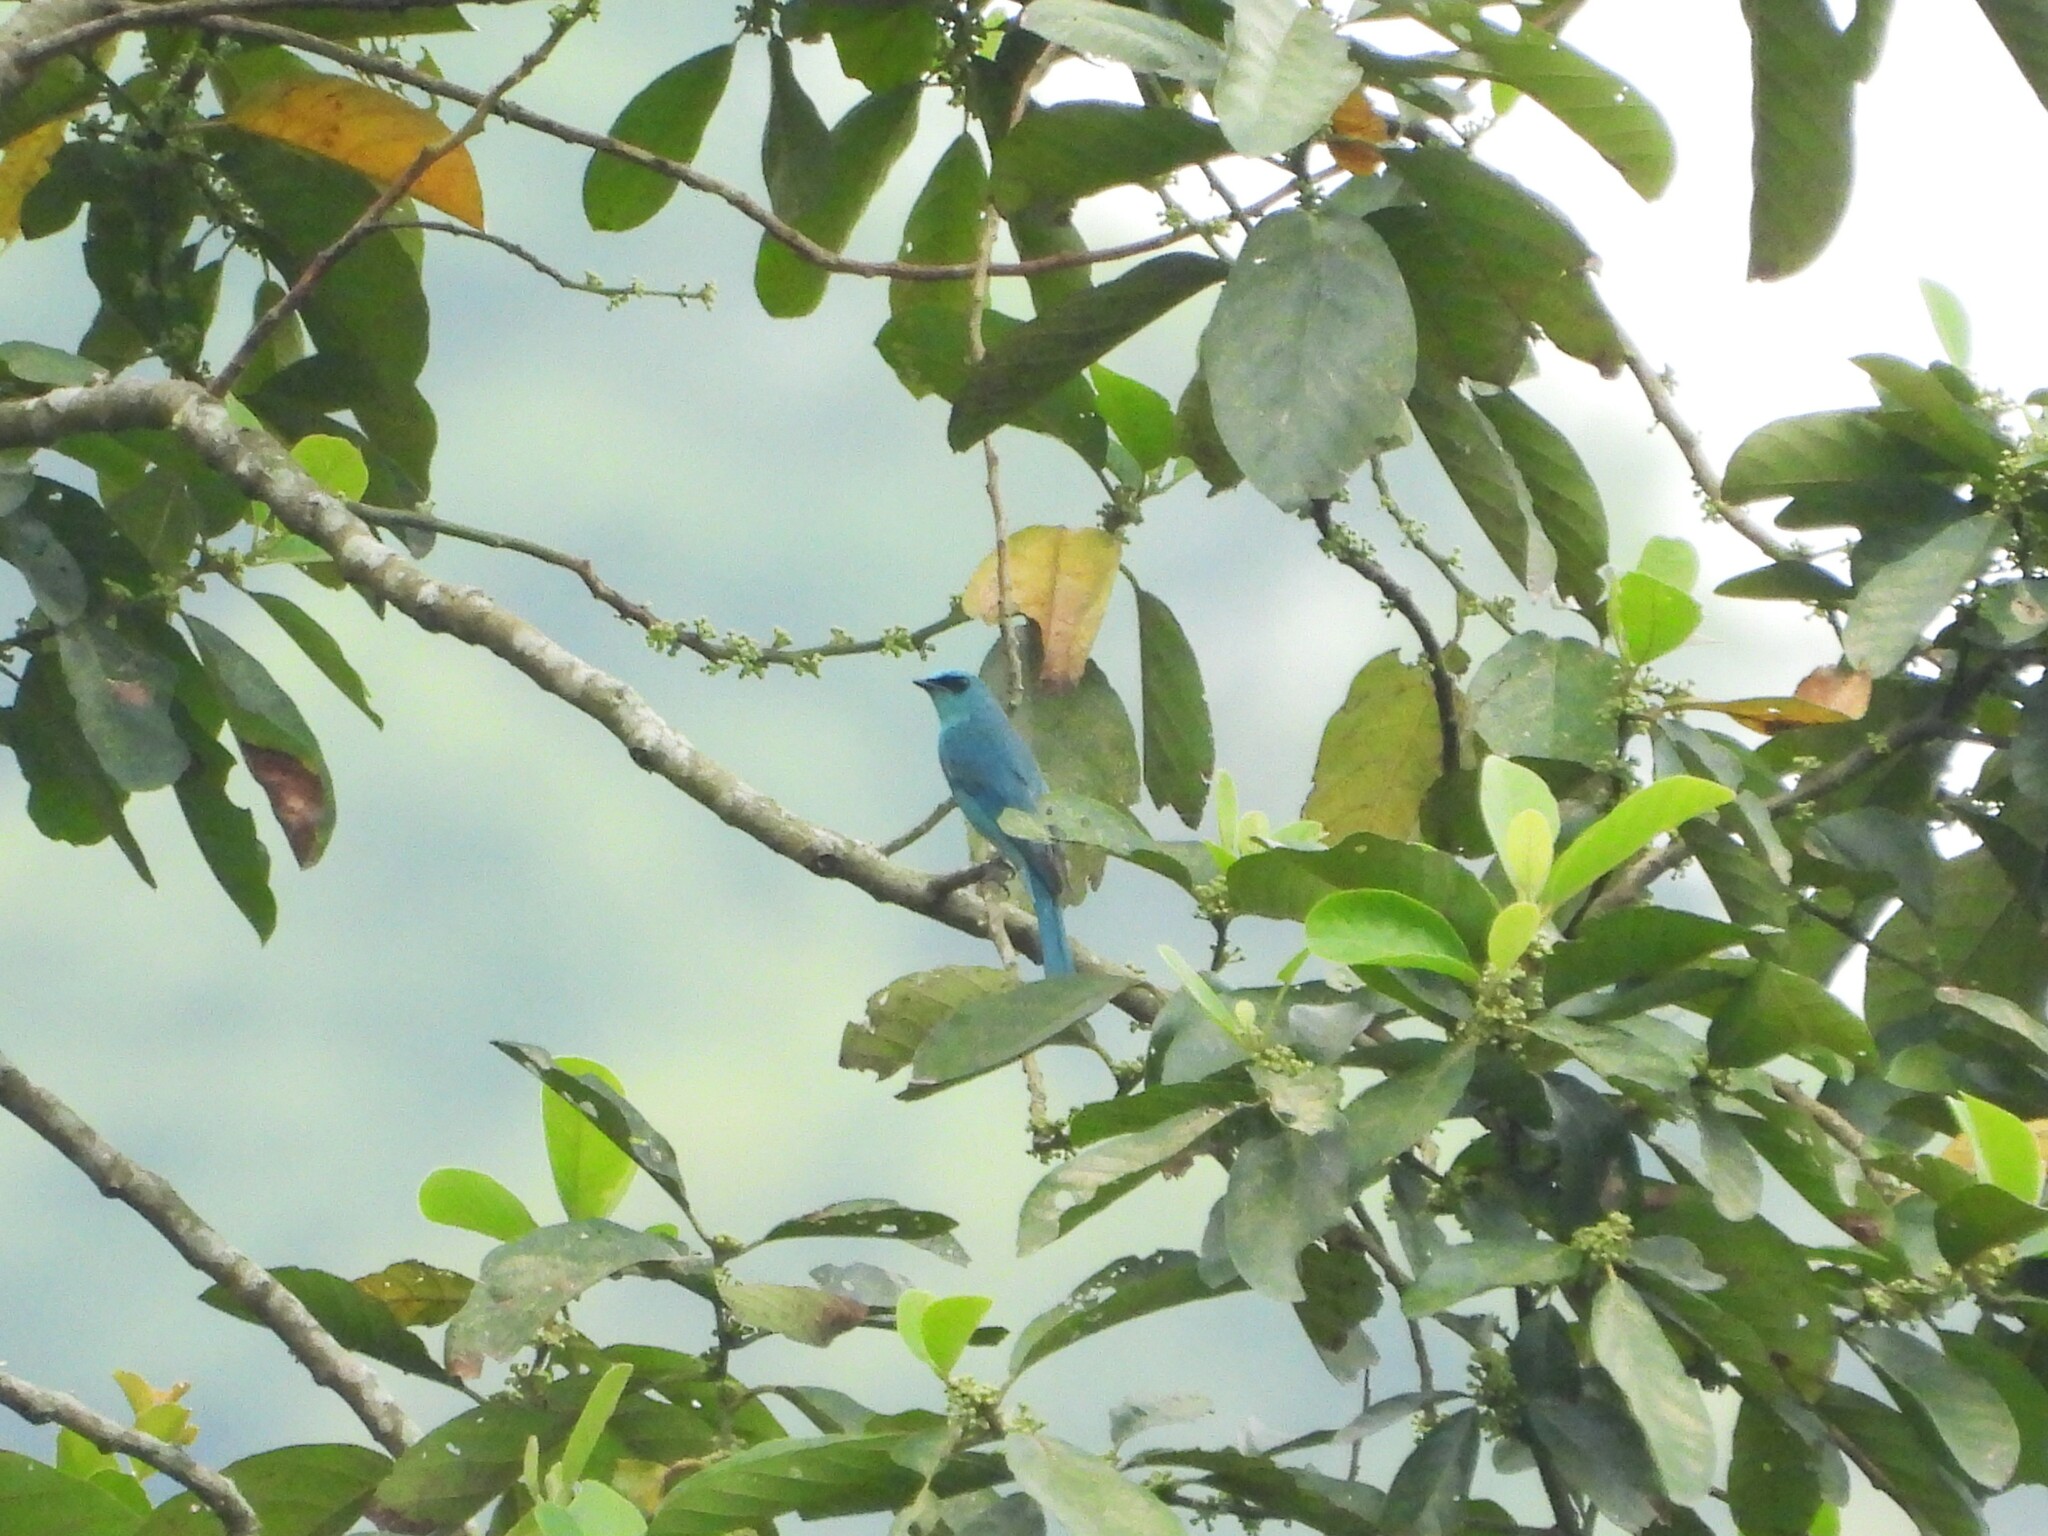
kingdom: Animalia
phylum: Chordata
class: Aves
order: Passeriformes
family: Muscicapidae
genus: Eumyias
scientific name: Eumyias thalassinus
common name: Verditer flycatcher
